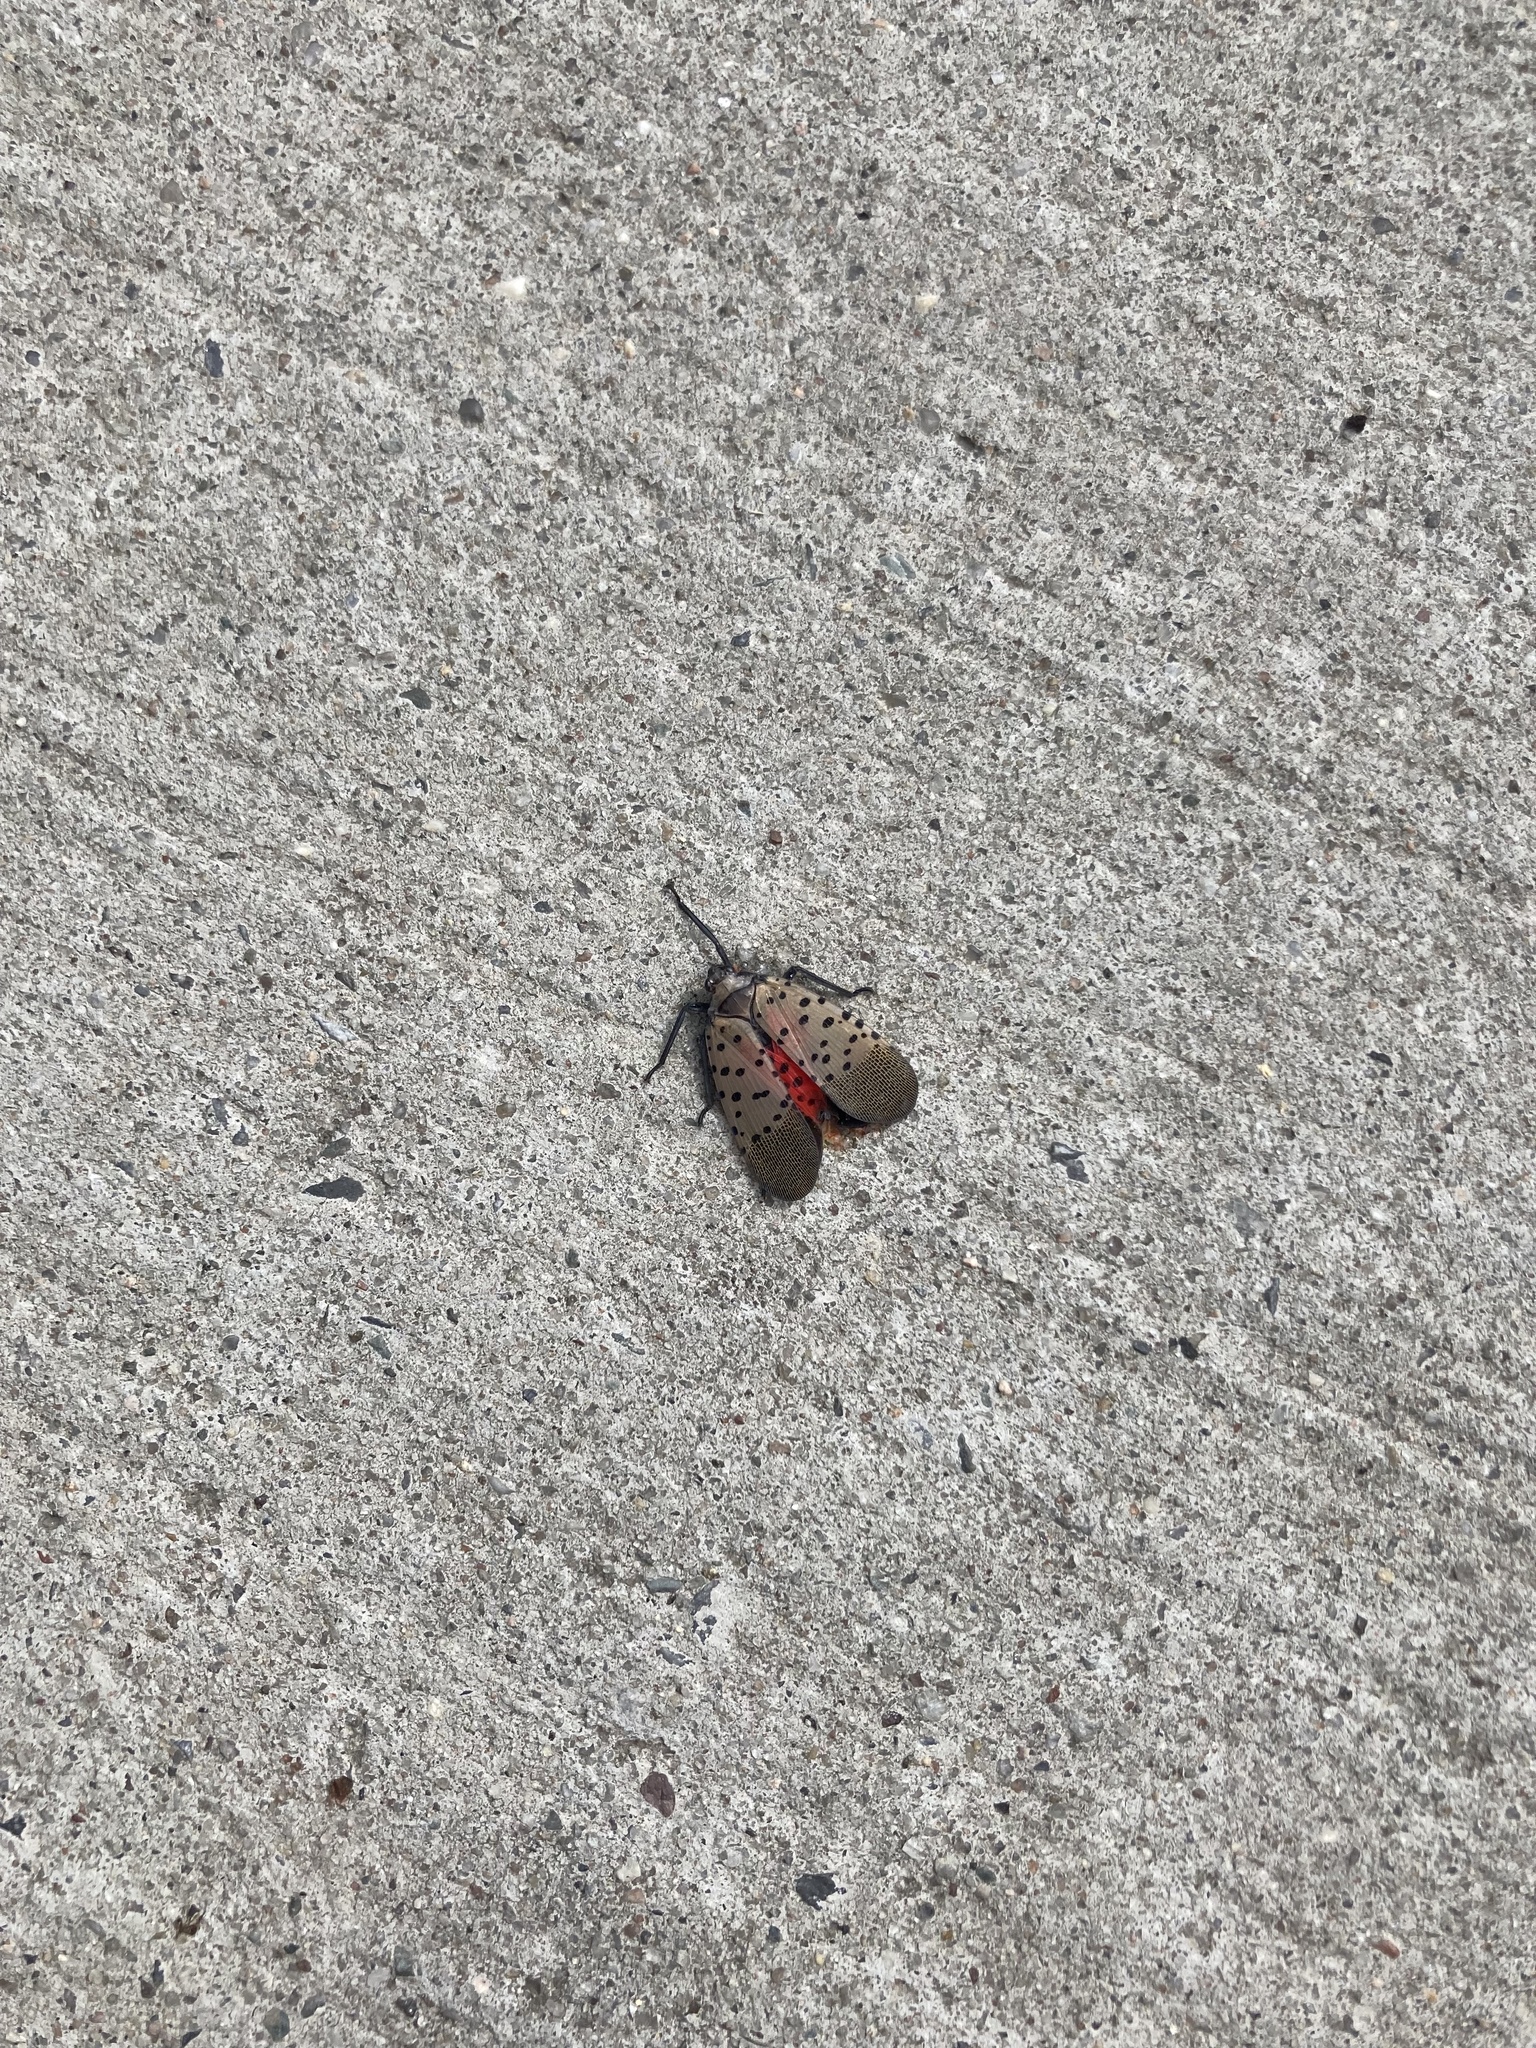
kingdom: Animalia
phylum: Arthropoda
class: Insecta
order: Hemiptera
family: Fulgoridae
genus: Lycorma
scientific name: Lycorma delicatula
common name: Spotted lanternfly
